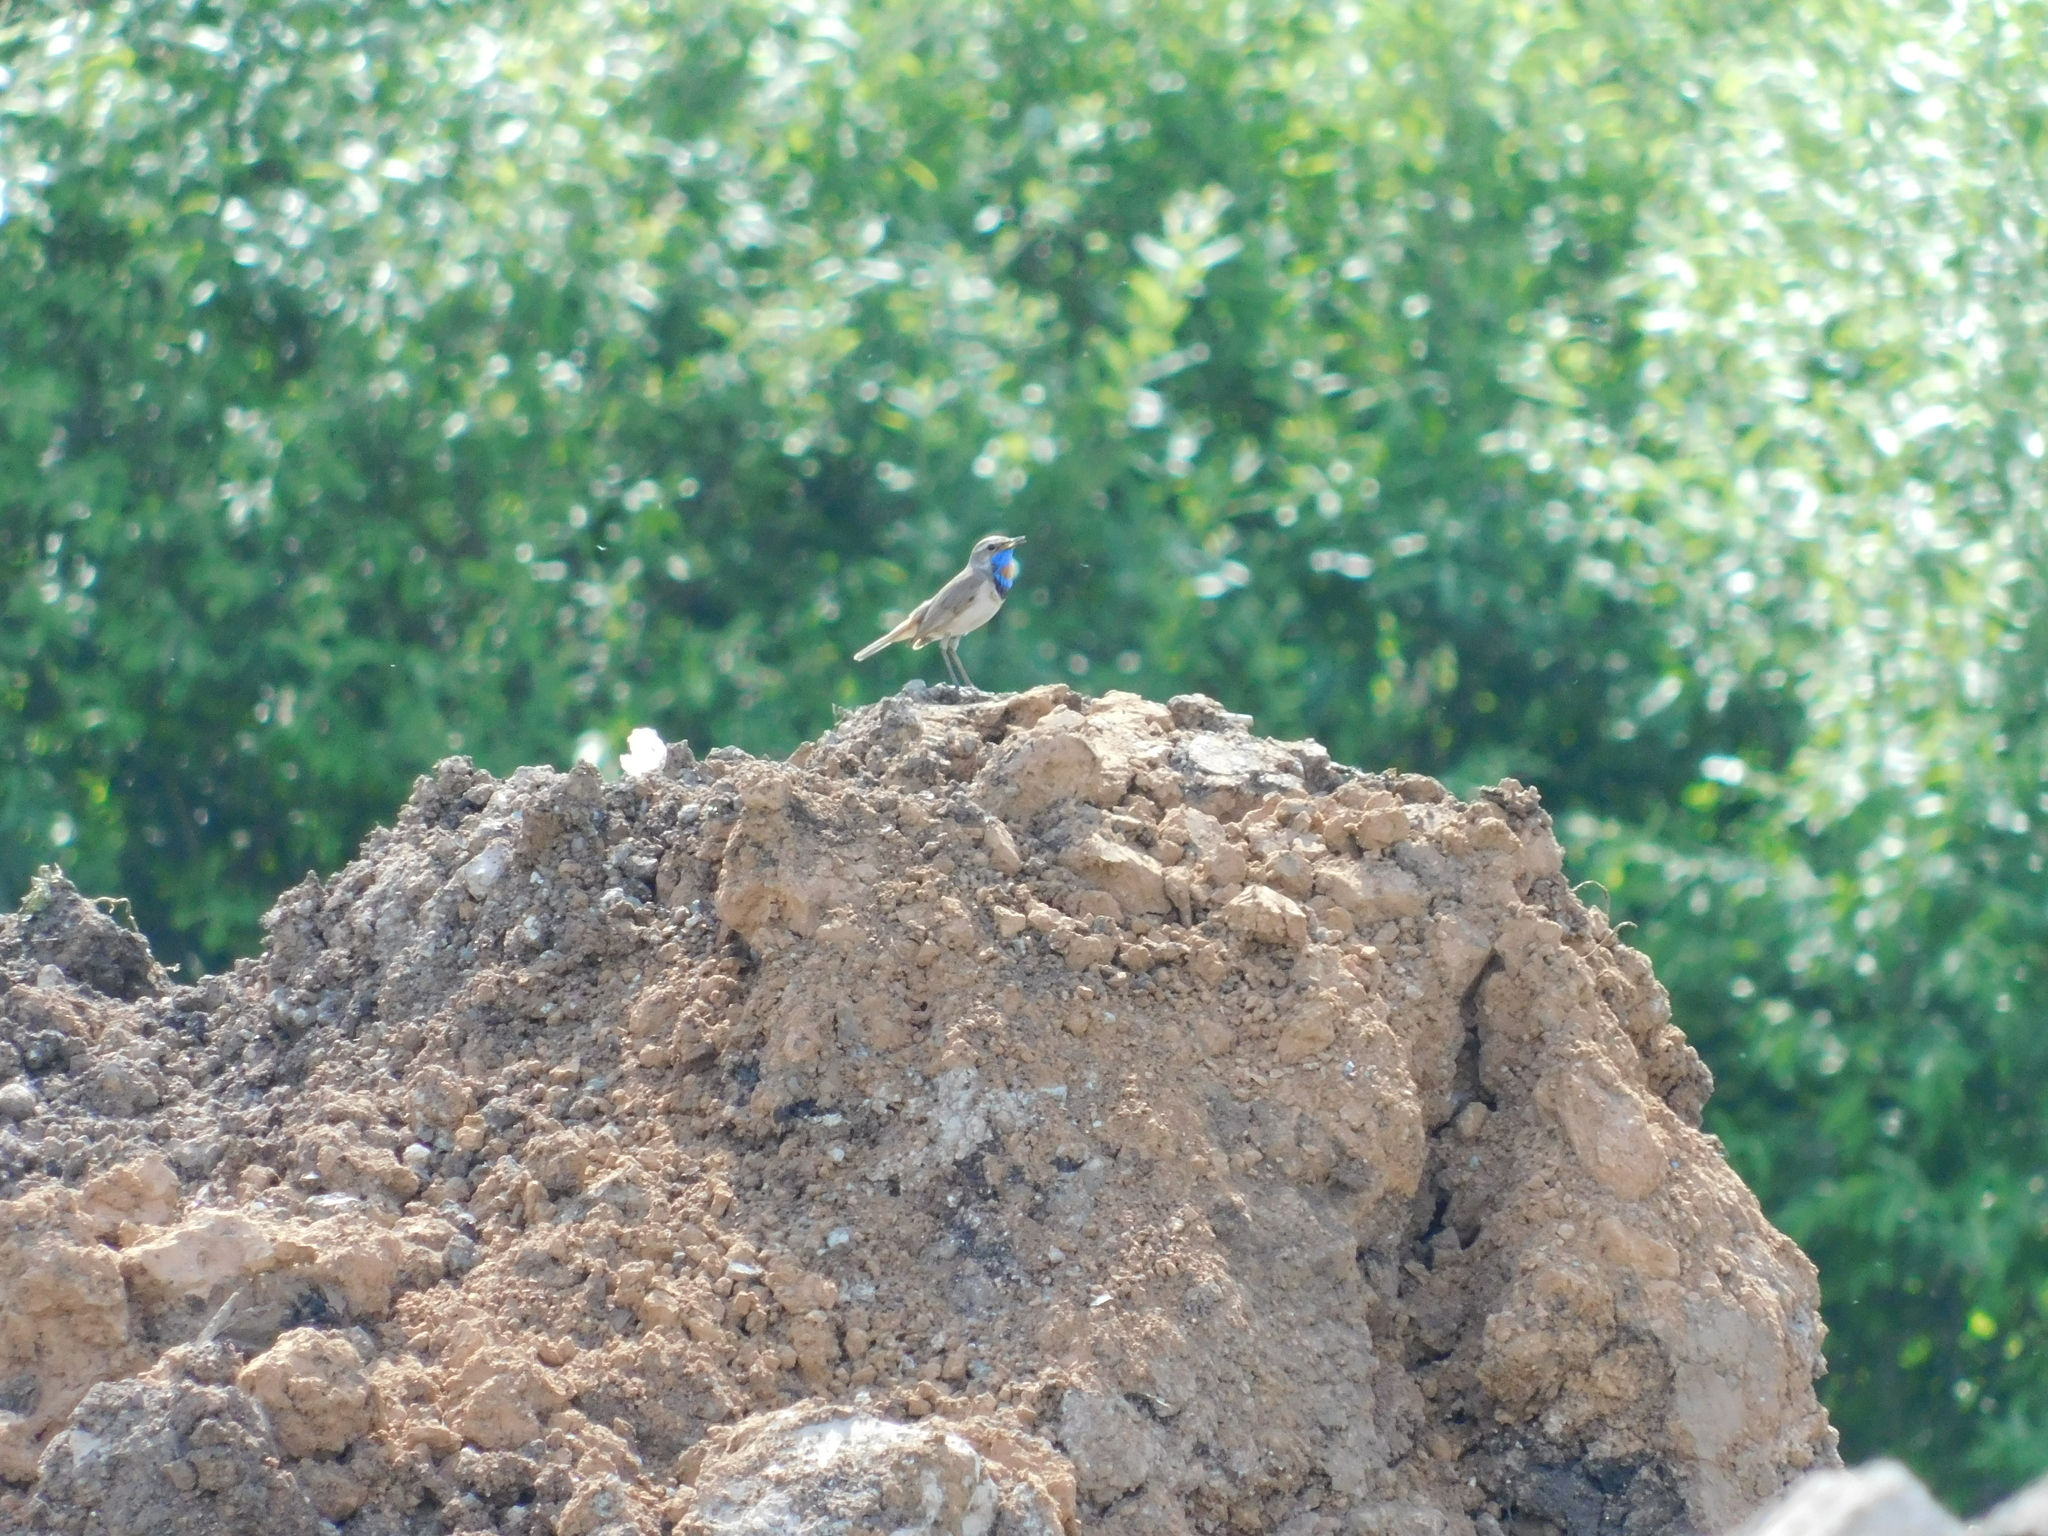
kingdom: Animalia
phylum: Chordata
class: Aves
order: Passeriformes
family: Muscicapidae
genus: Luscinia
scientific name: Luscinia svecica
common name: Bluethroat
